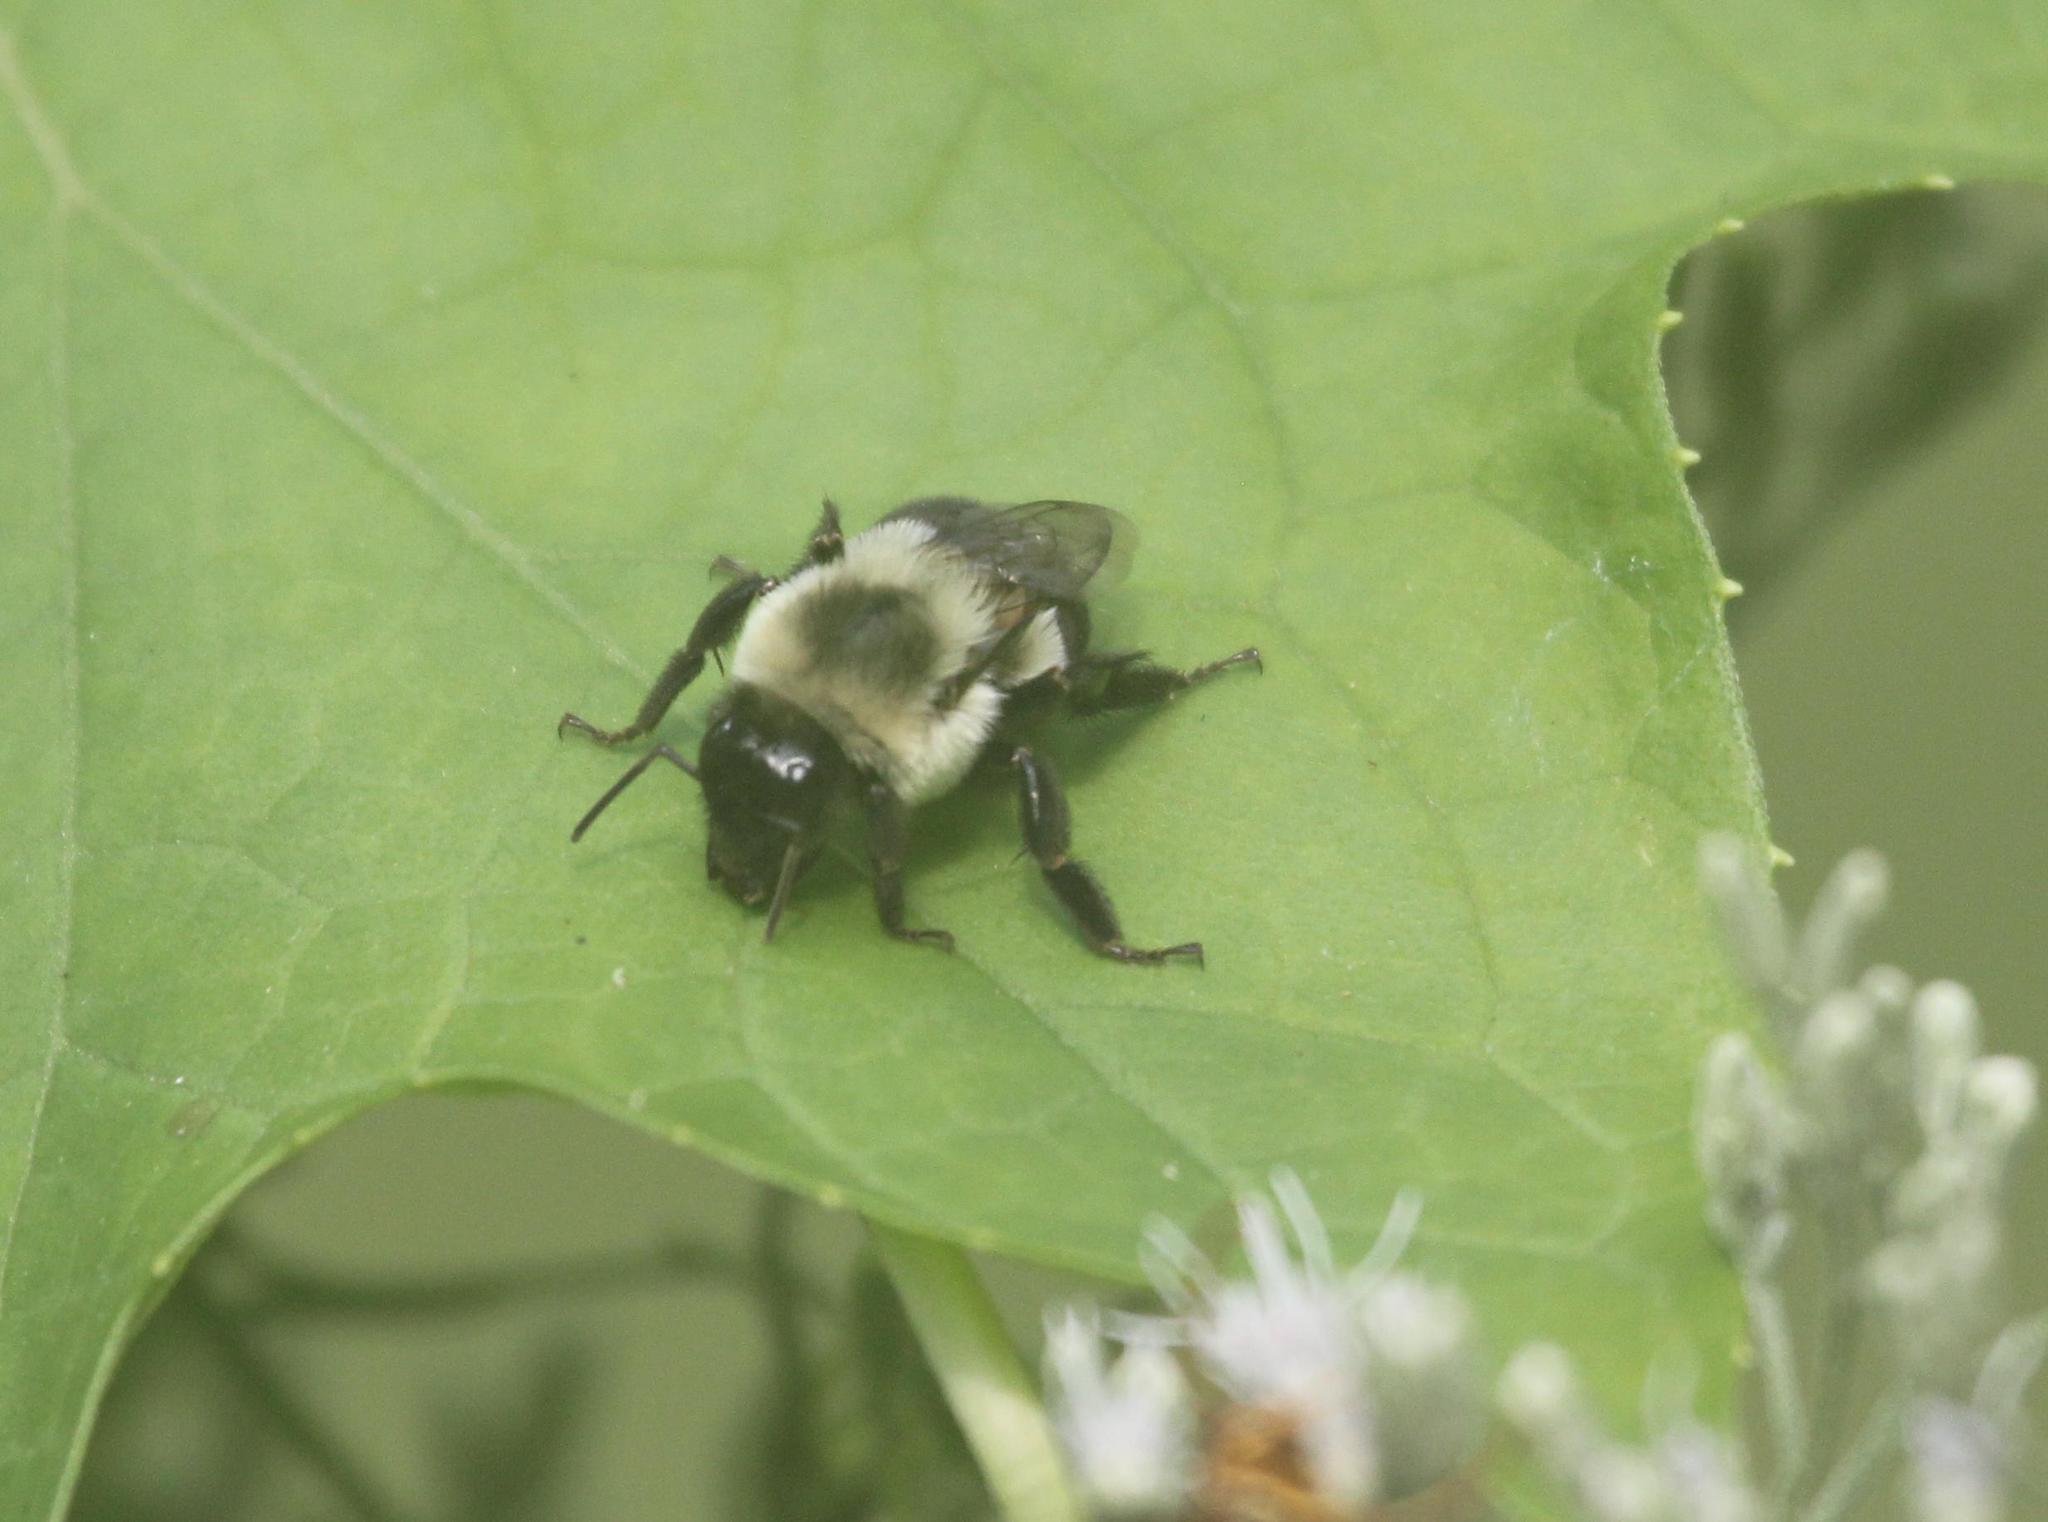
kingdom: Animalia
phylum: Arthropoda
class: Insecta
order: Hymenoptera
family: Apidae
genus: Bombus
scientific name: Bombus impatiens
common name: Common eastern bumble bee
